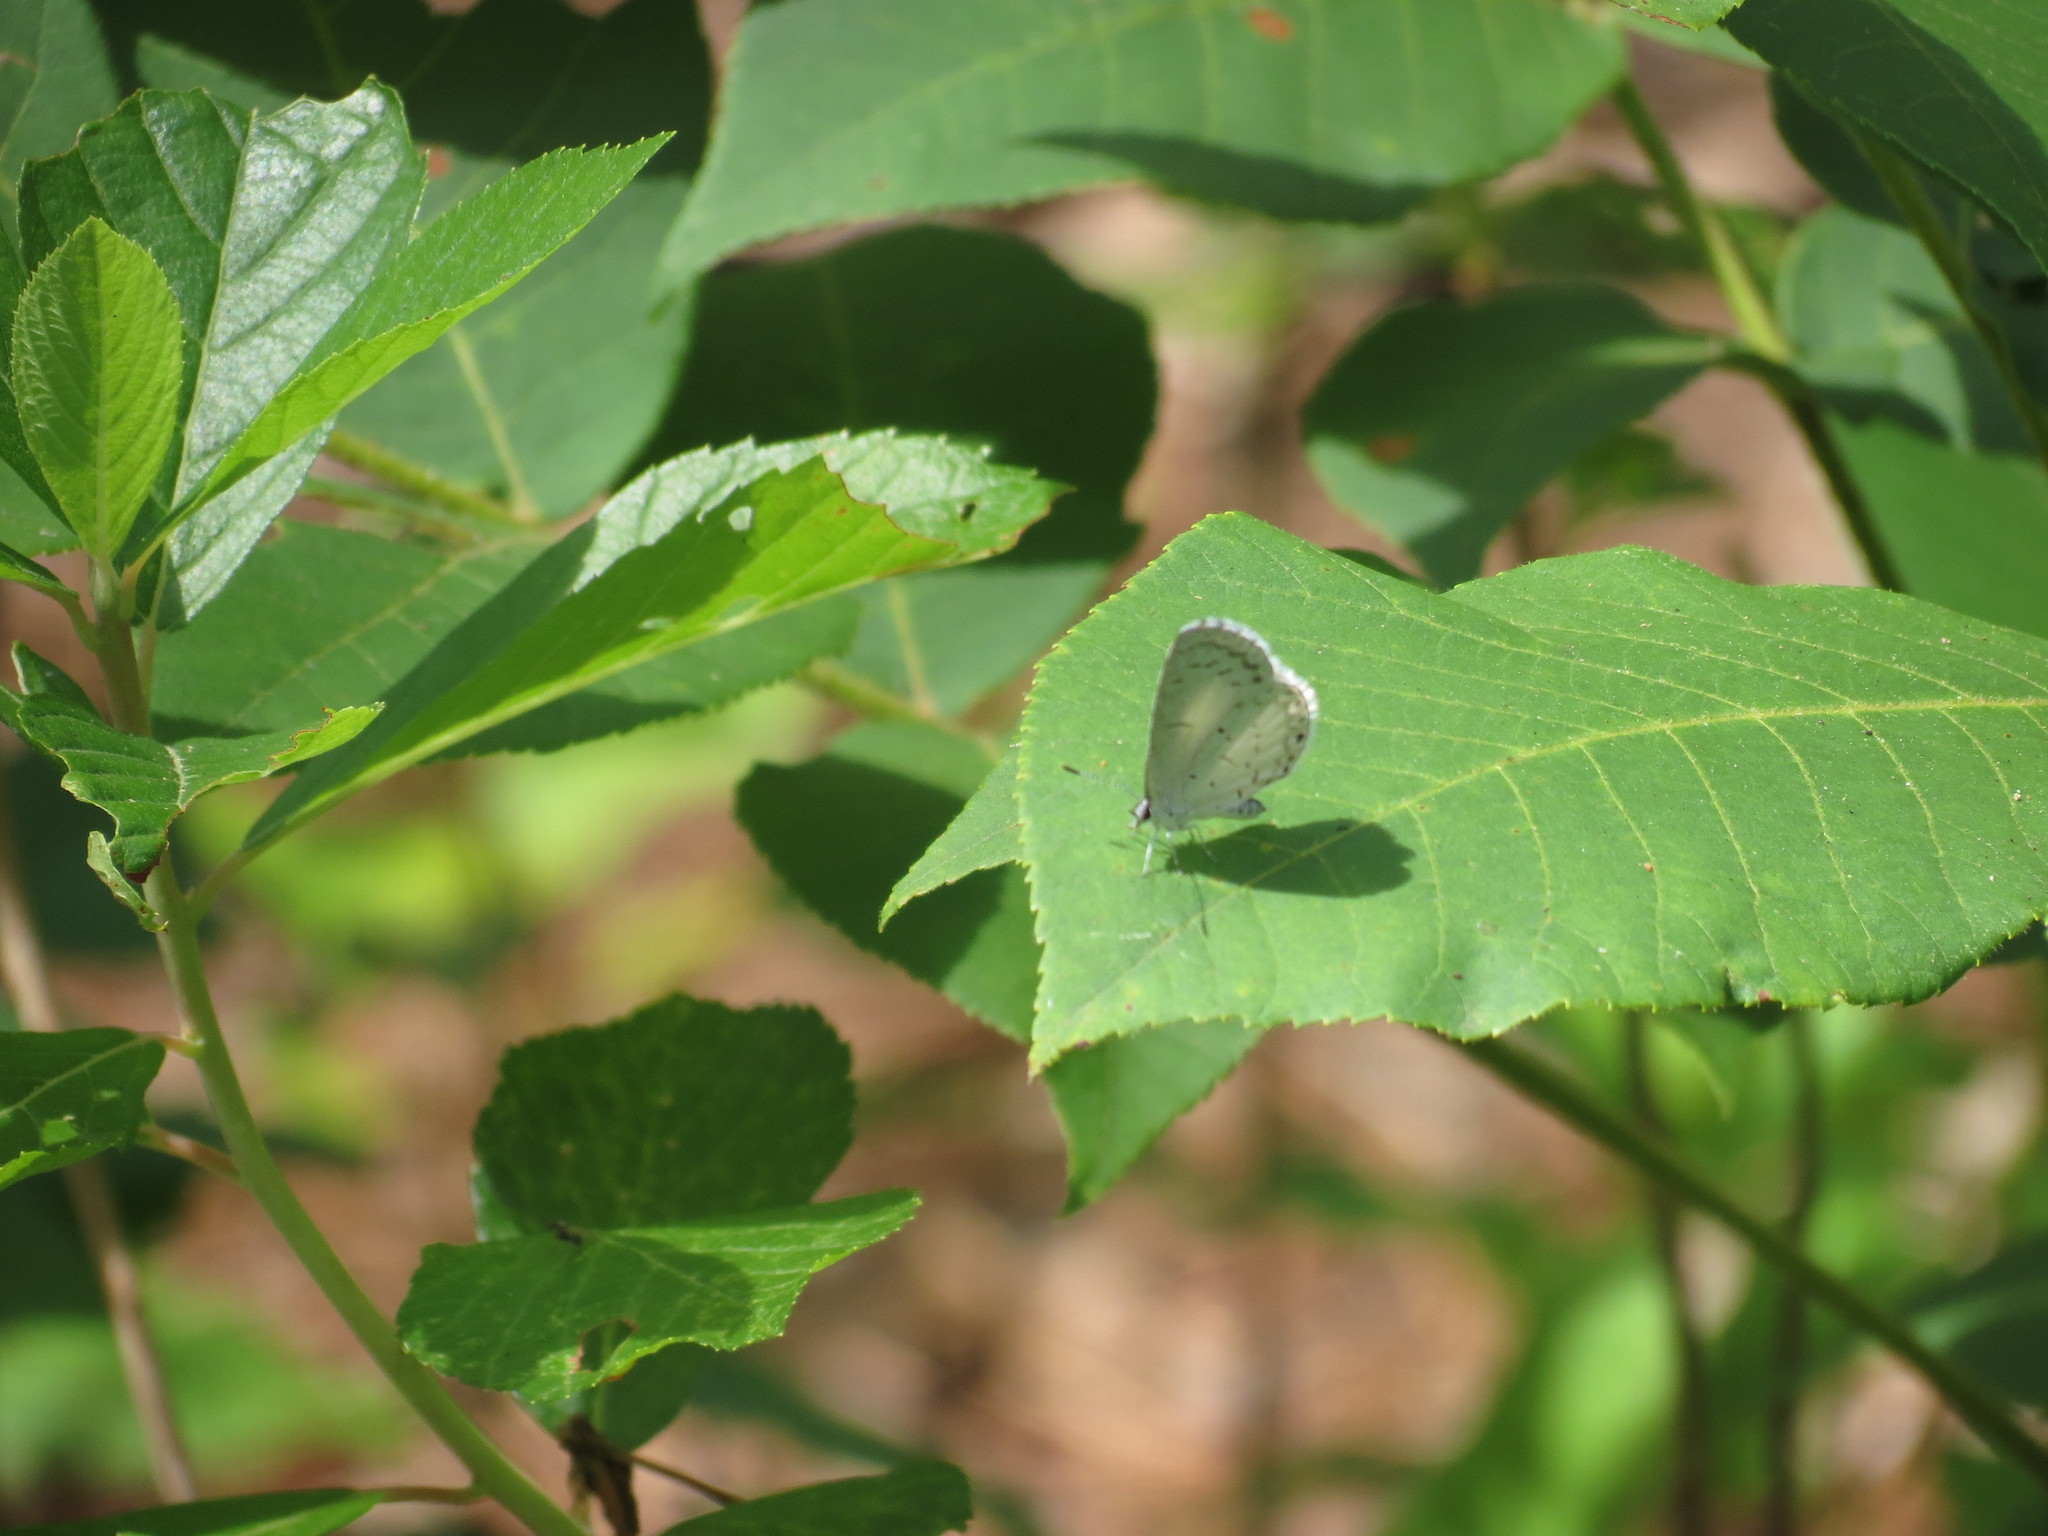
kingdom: Animalia
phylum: Arthropoda
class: Insecta
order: Lepidoptera
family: Lycaenidae
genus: Cyaniris
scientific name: Cyaniris neglecta
